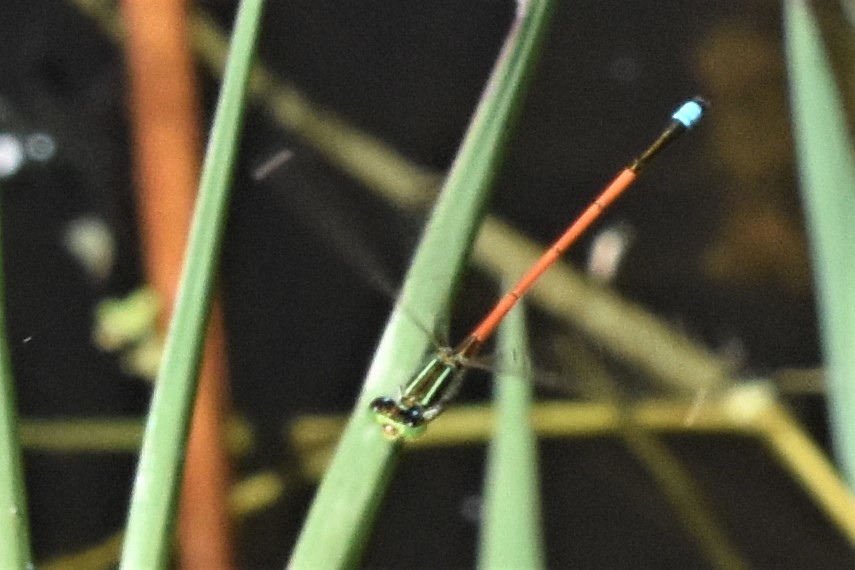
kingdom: Animalia
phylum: Arthropoda
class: Insecta
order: Odonata
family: Coenagrionidae
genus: Ischnura
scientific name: Ischnura aurora
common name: Gossamer damselfly
